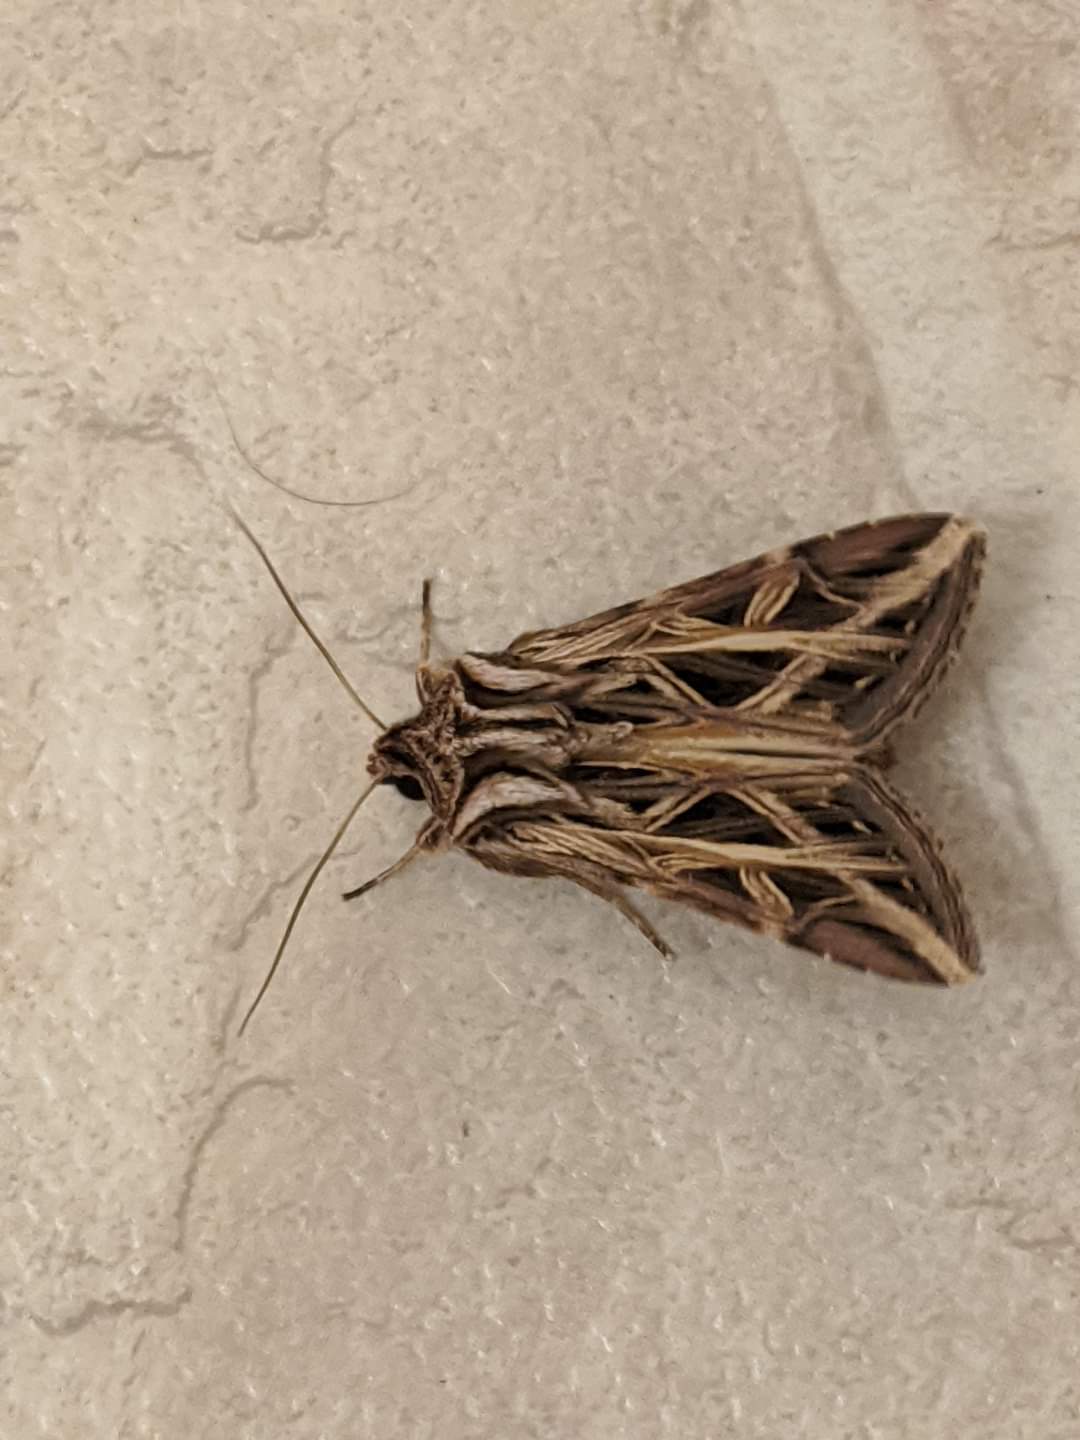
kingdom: Animalia
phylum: Arthropoda
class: Insecta
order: Lepidoptera
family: Noctuidae
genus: Dargida
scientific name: Dargida procinctus
